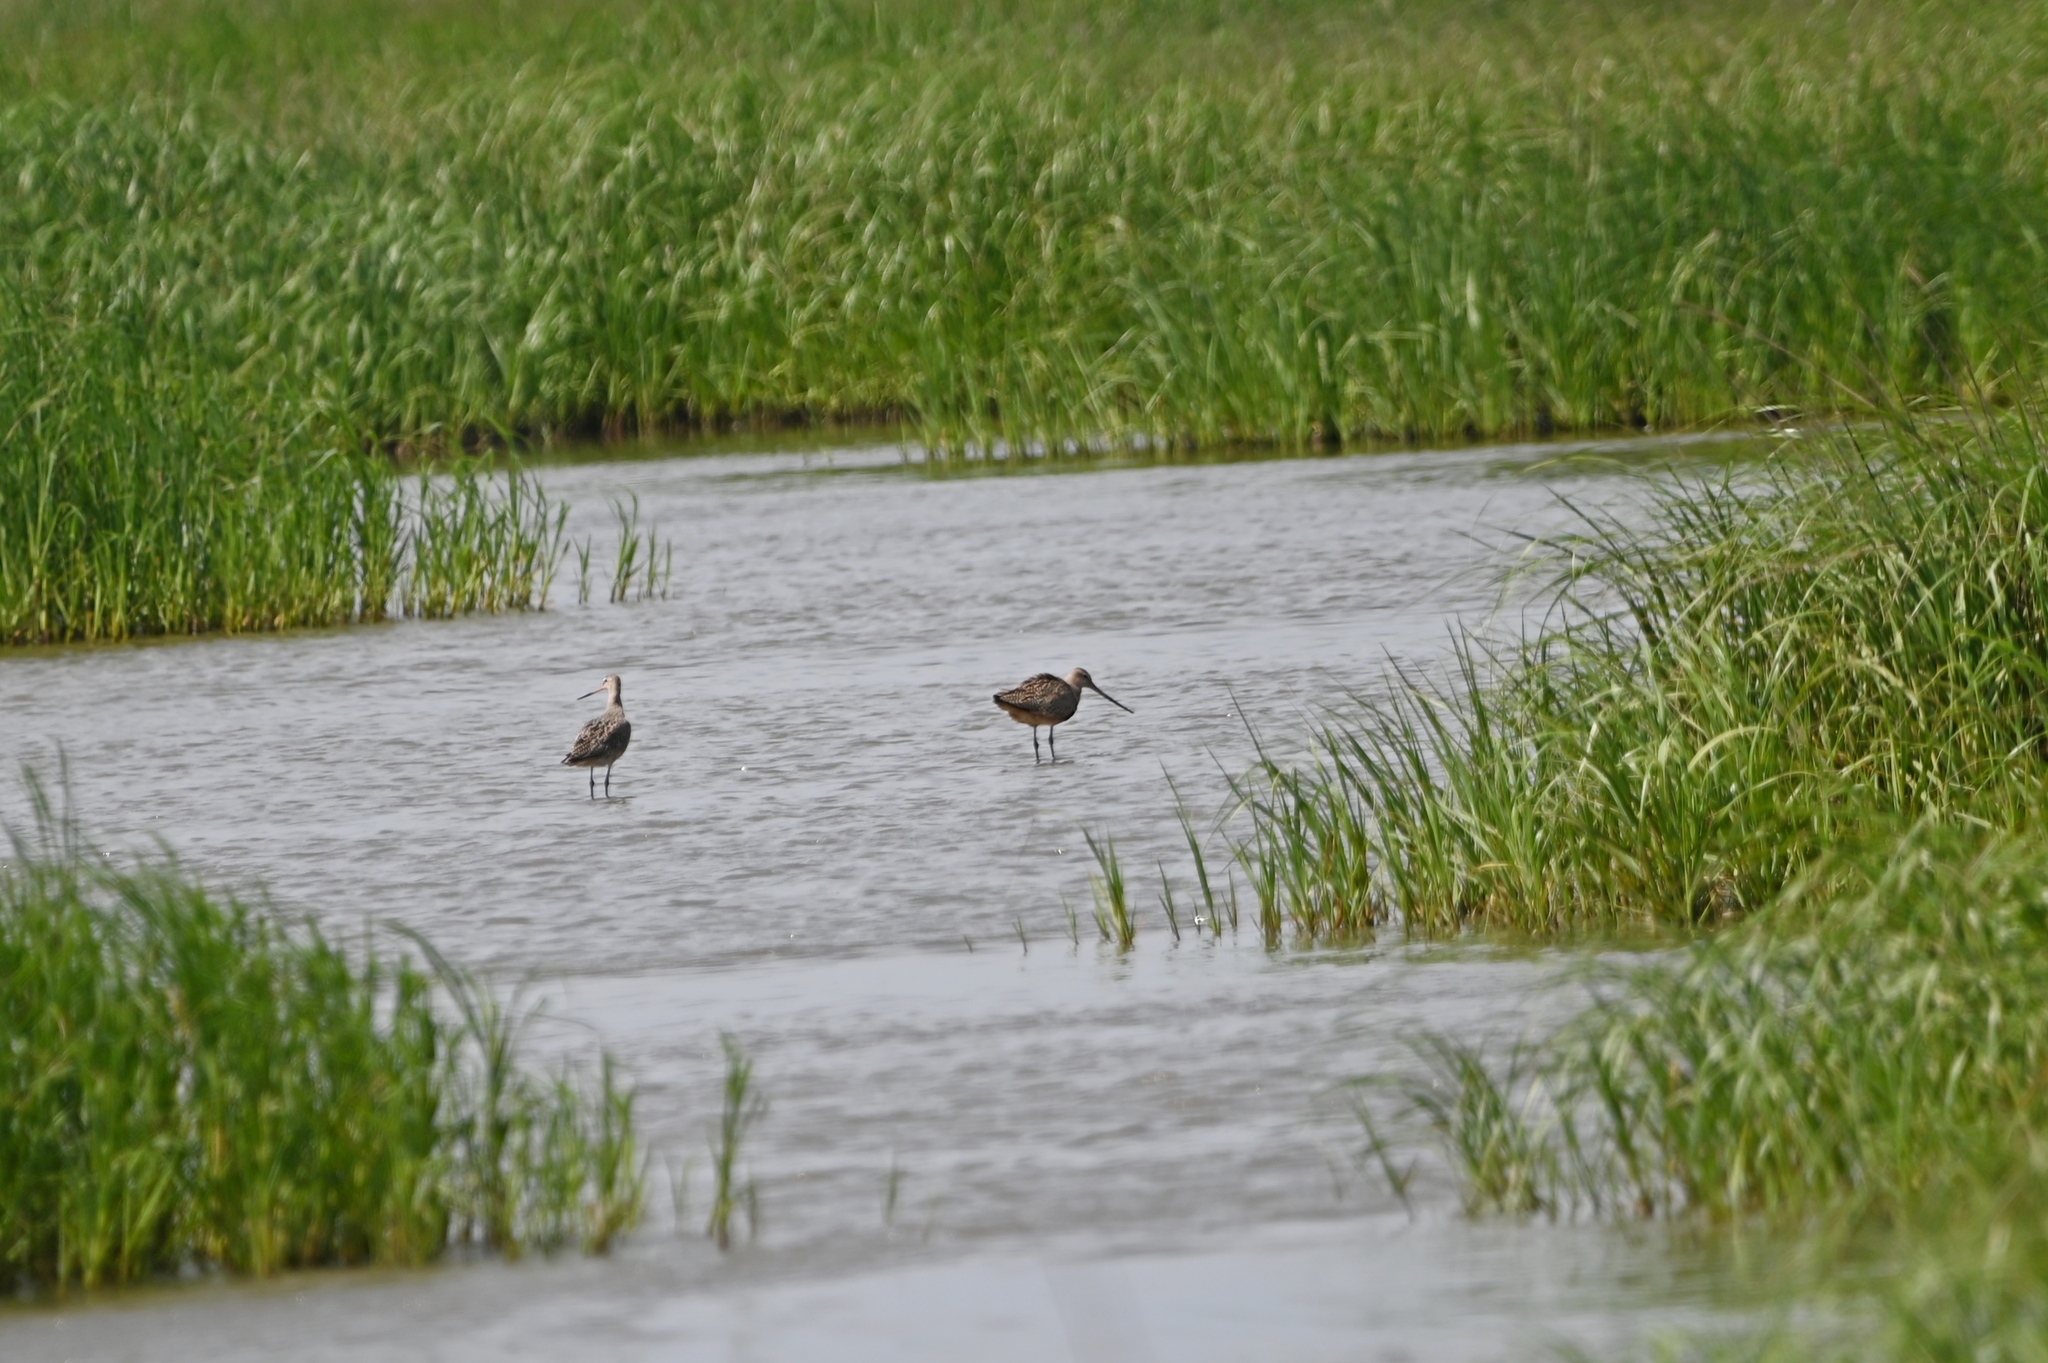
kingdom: Animalia
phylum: Chordata
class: Aves
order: Charadriiformes
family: Scolopacidae
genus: Limosa
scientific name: Limosa fedoa
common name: Marbled godwit
